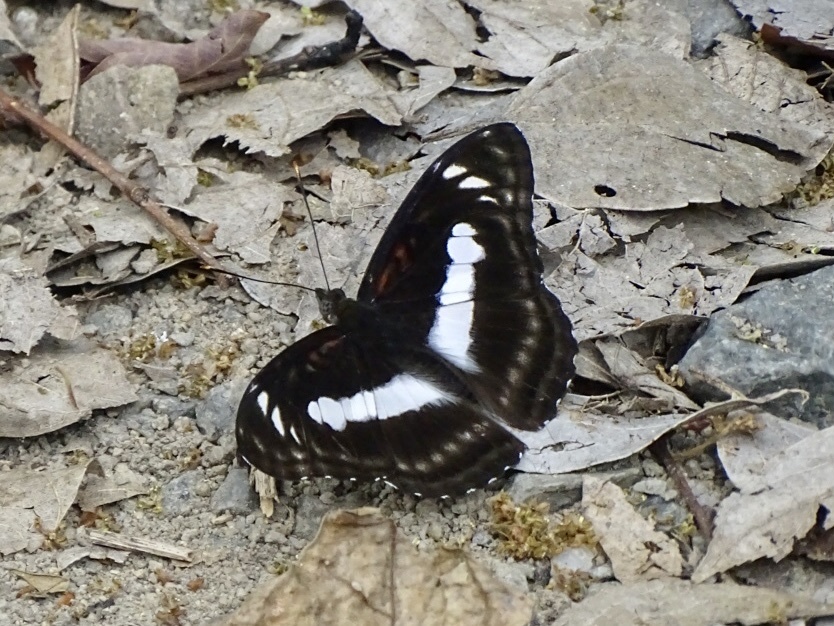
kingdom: Animalia
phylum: Arthropoda
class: Insecta
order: Lepidoptera
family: Nymphalidae
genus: Parathyma
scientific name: Parathyma selenophora
